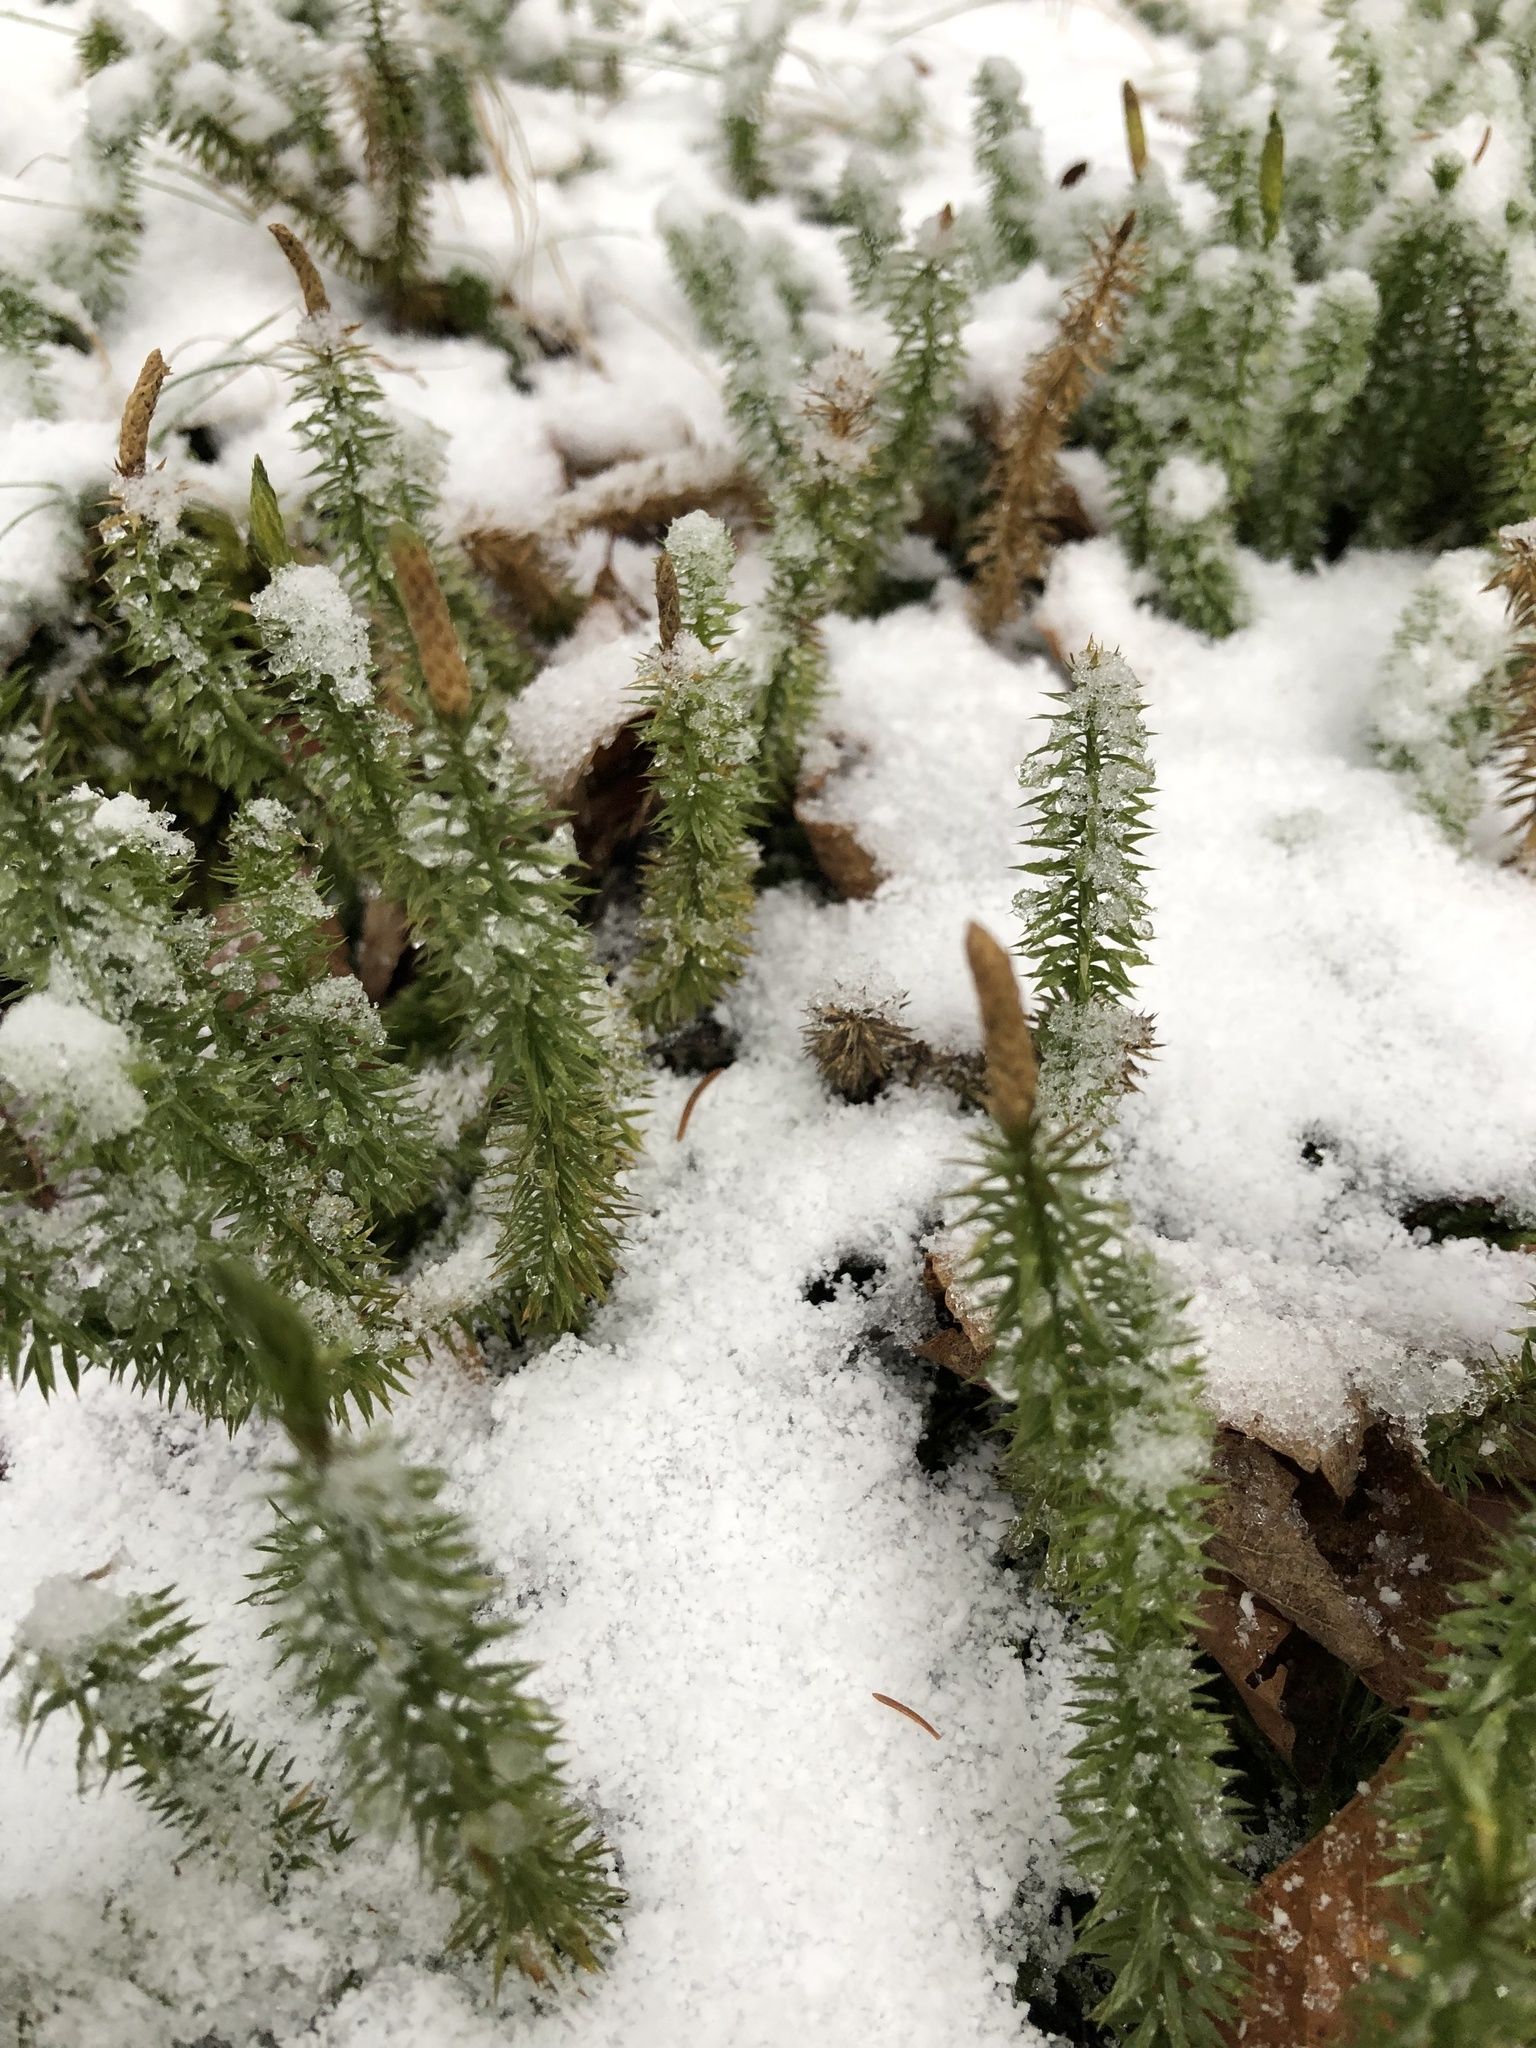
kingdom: Plantae
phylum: Tracheophyta
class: Lycopodiopsida
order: Lycopodiales
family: Lycopodiaceae
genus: Spinulum
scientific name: Spinulum annotinum
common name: Interrupted club-moss
